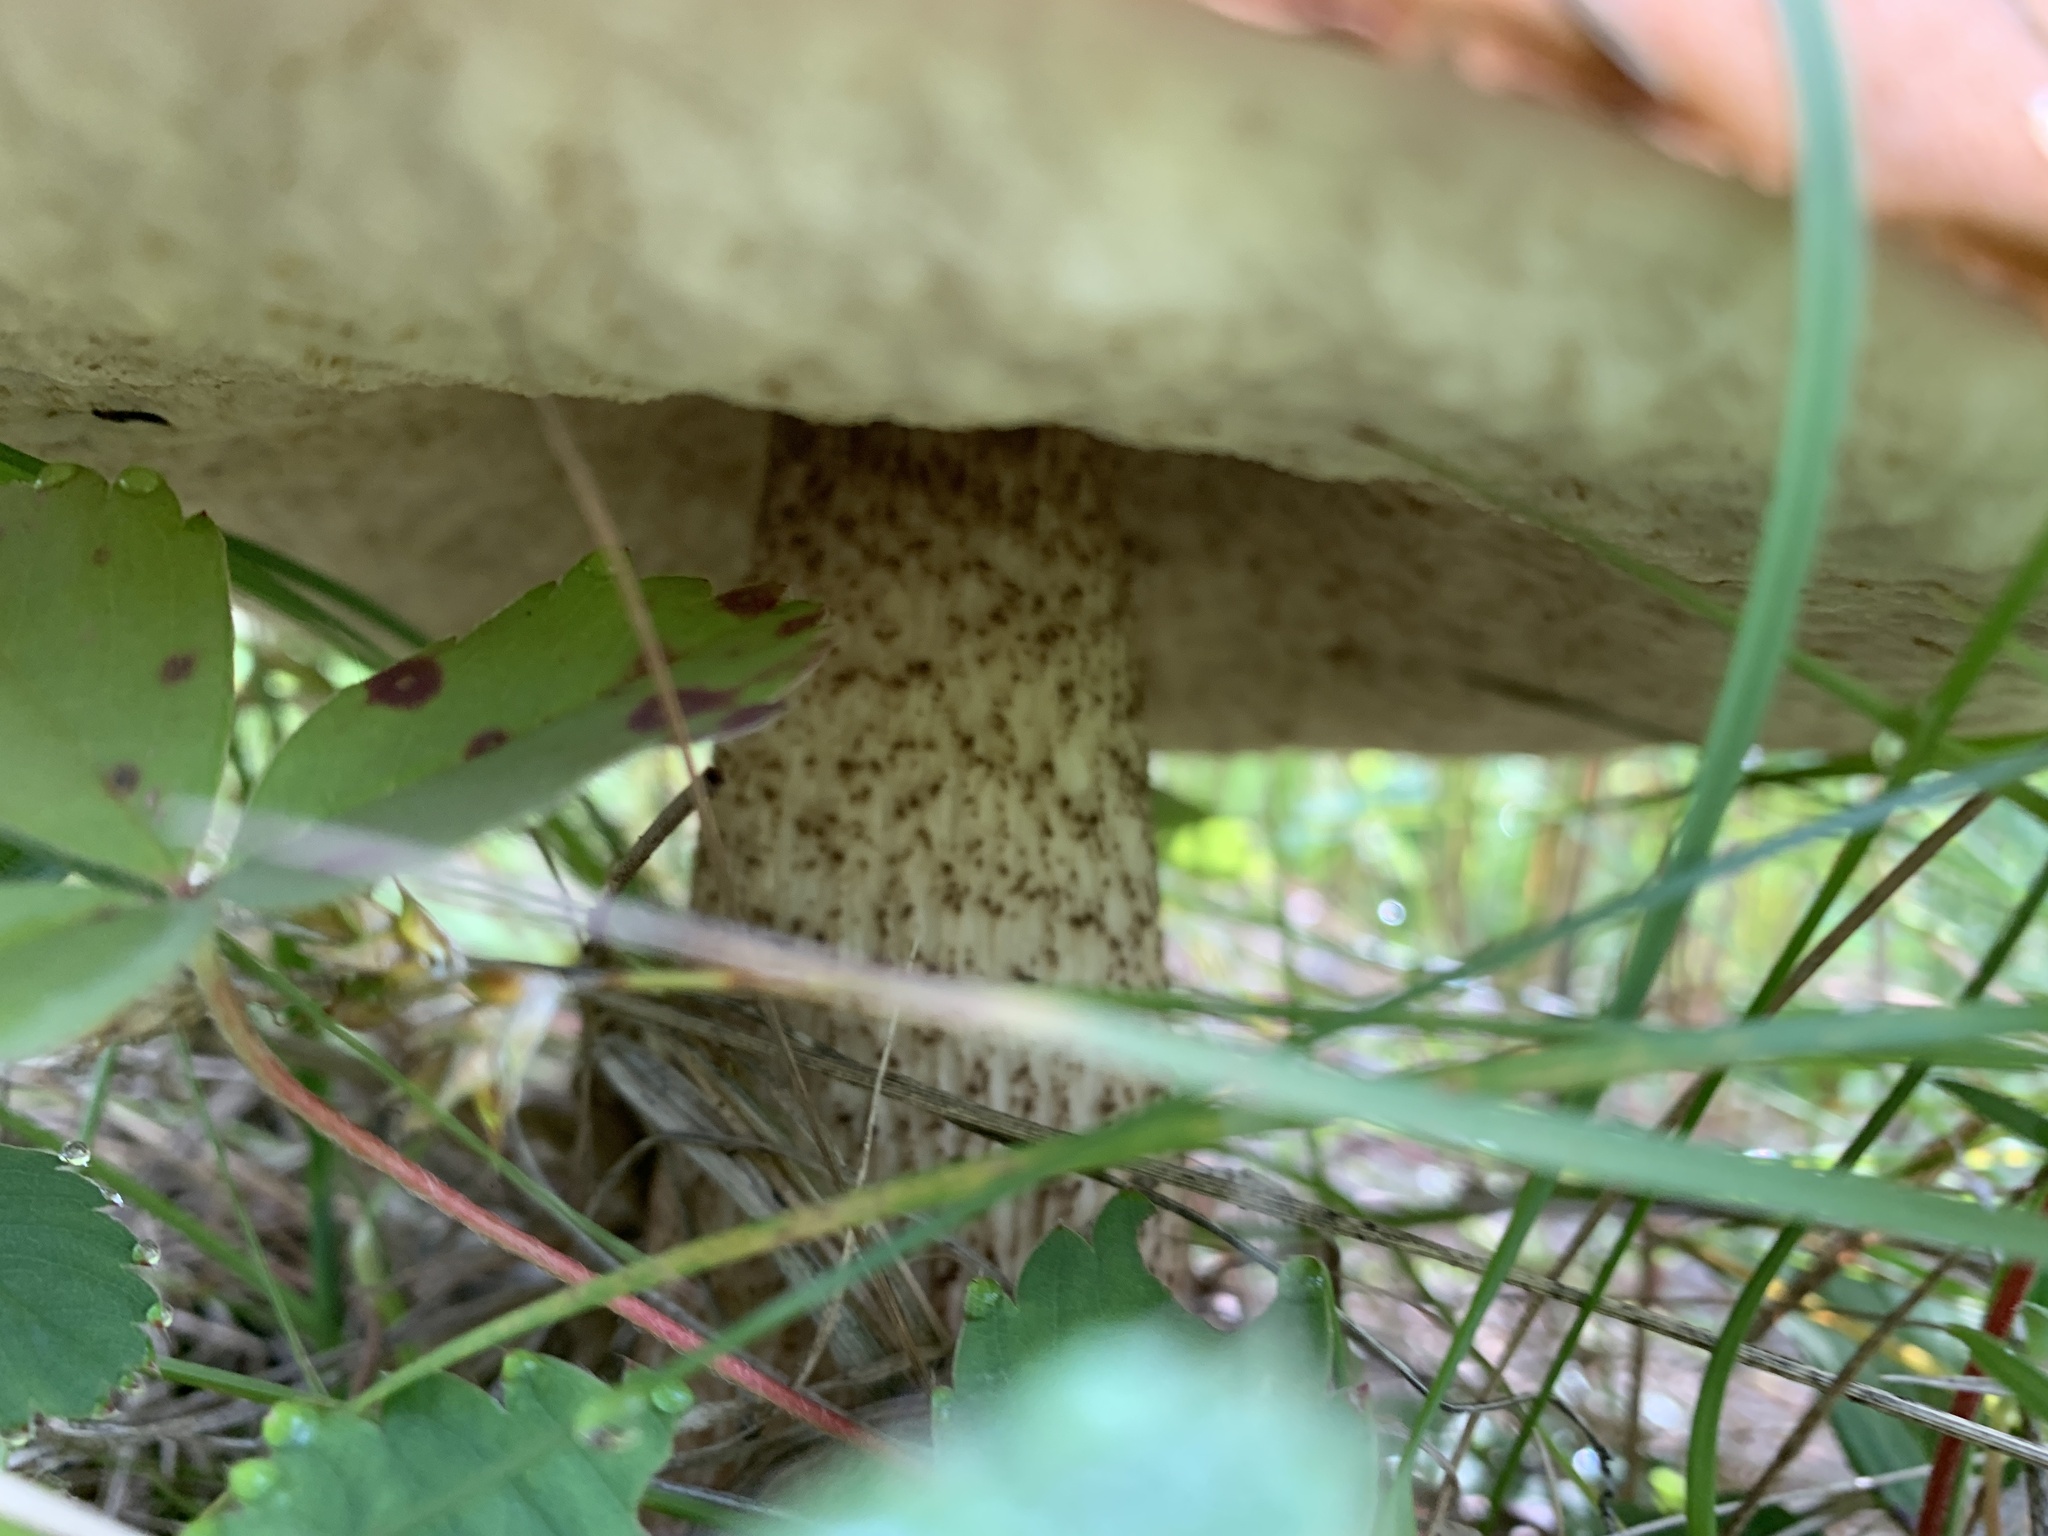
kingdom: Fungi
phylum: Basidiomycota
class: Agaricomycetes
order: Boletales
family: Boletaceae
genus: Leccinum
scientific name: Leccinum insigne
